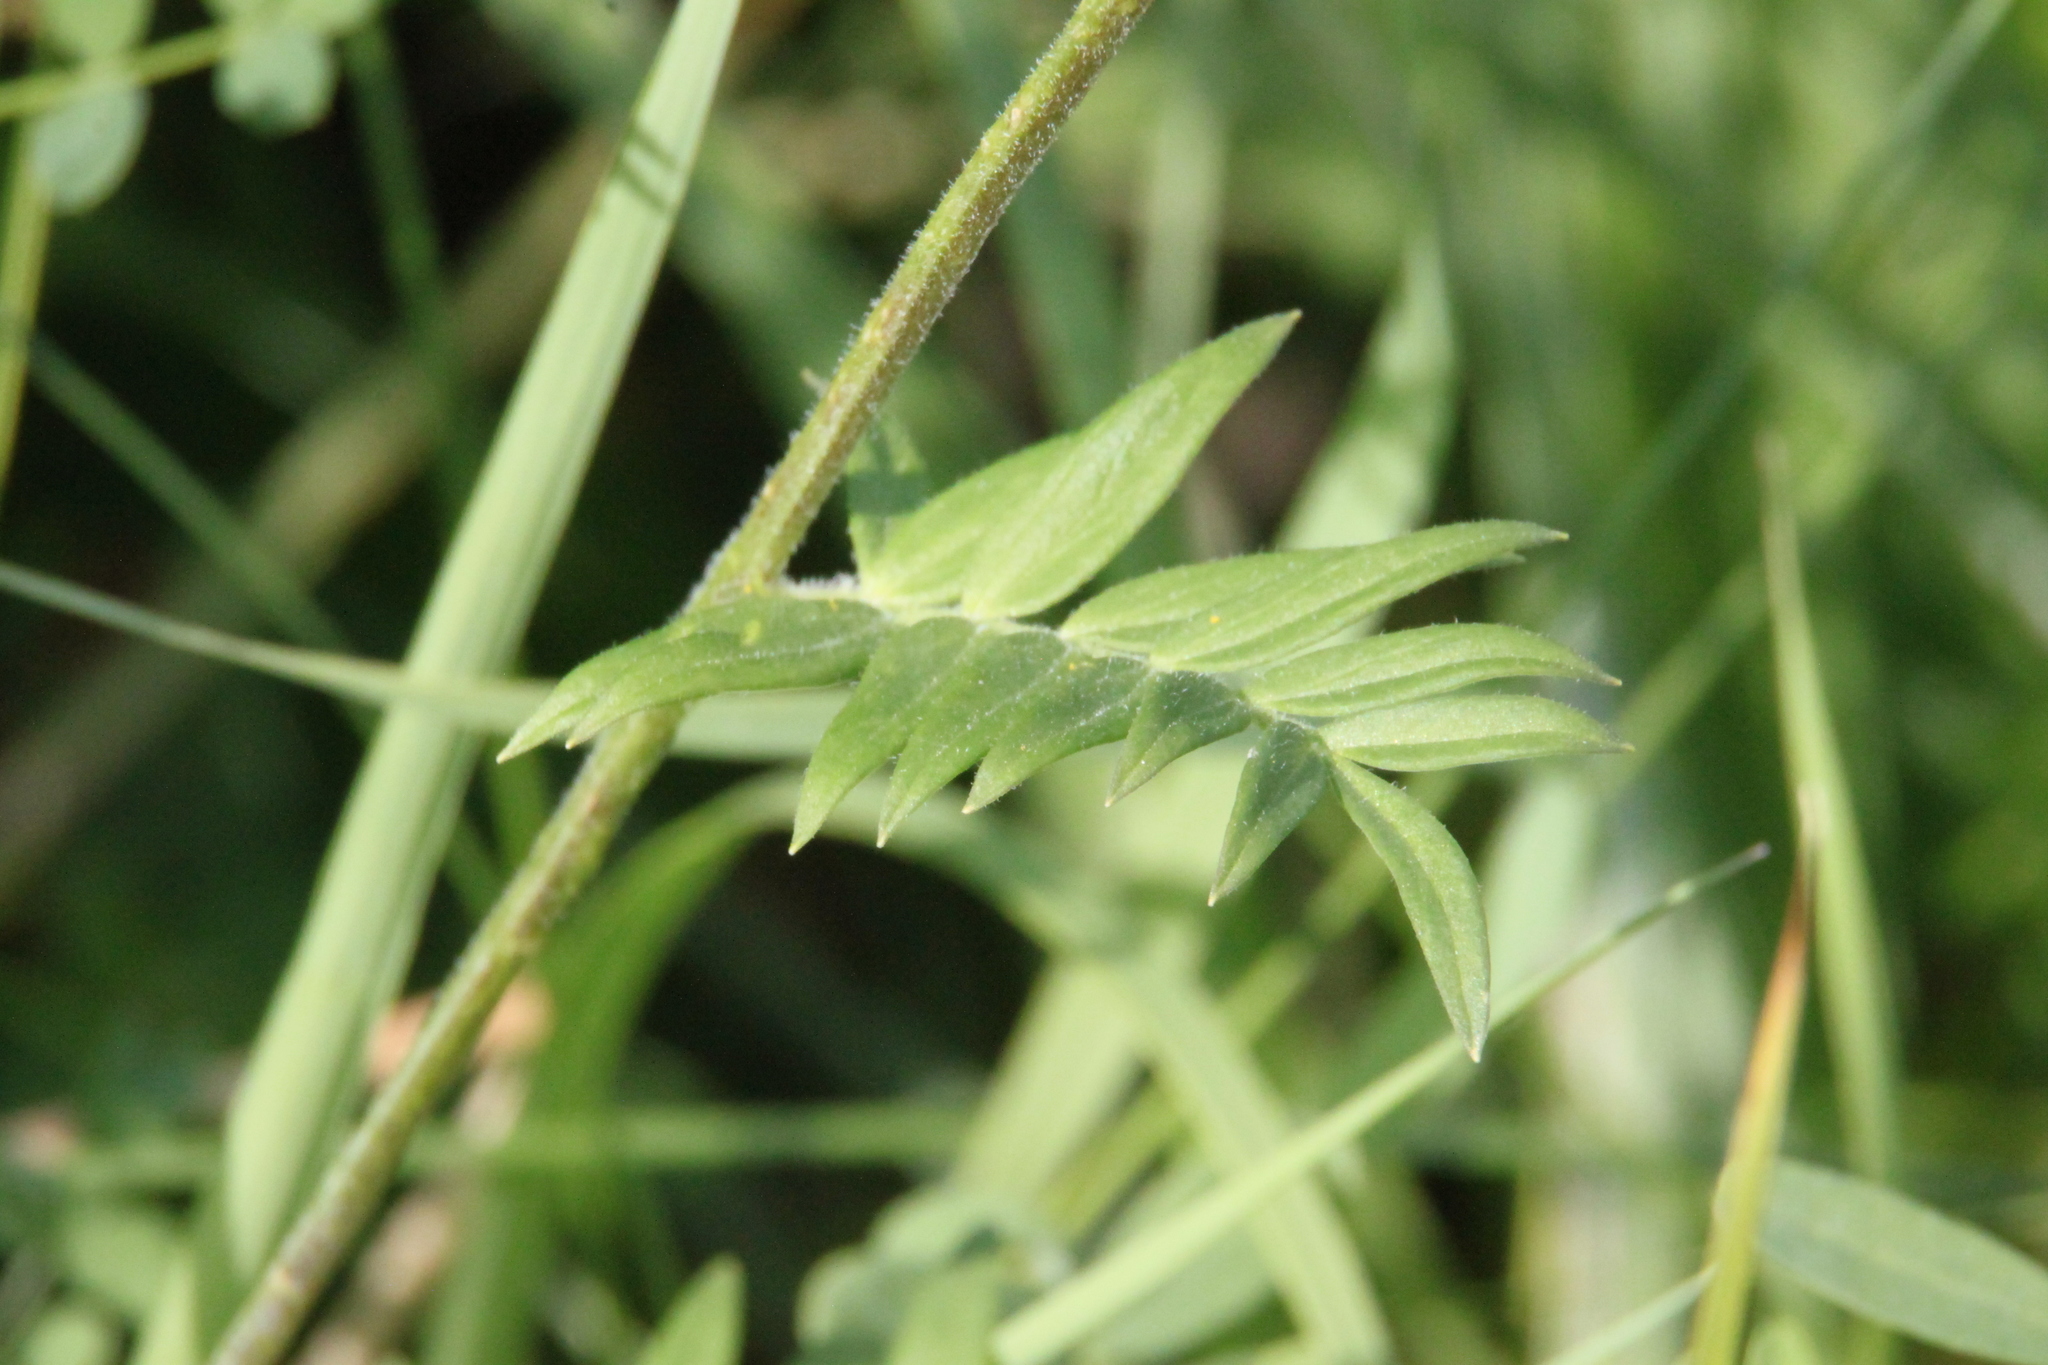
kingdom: Plantae
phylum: Tracheophyta
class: Magnoliopsida
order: Ericales
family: Polemoniaceae
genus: Polemonium
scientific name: Polemonium caeruleum
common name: Jacob's-ladder
